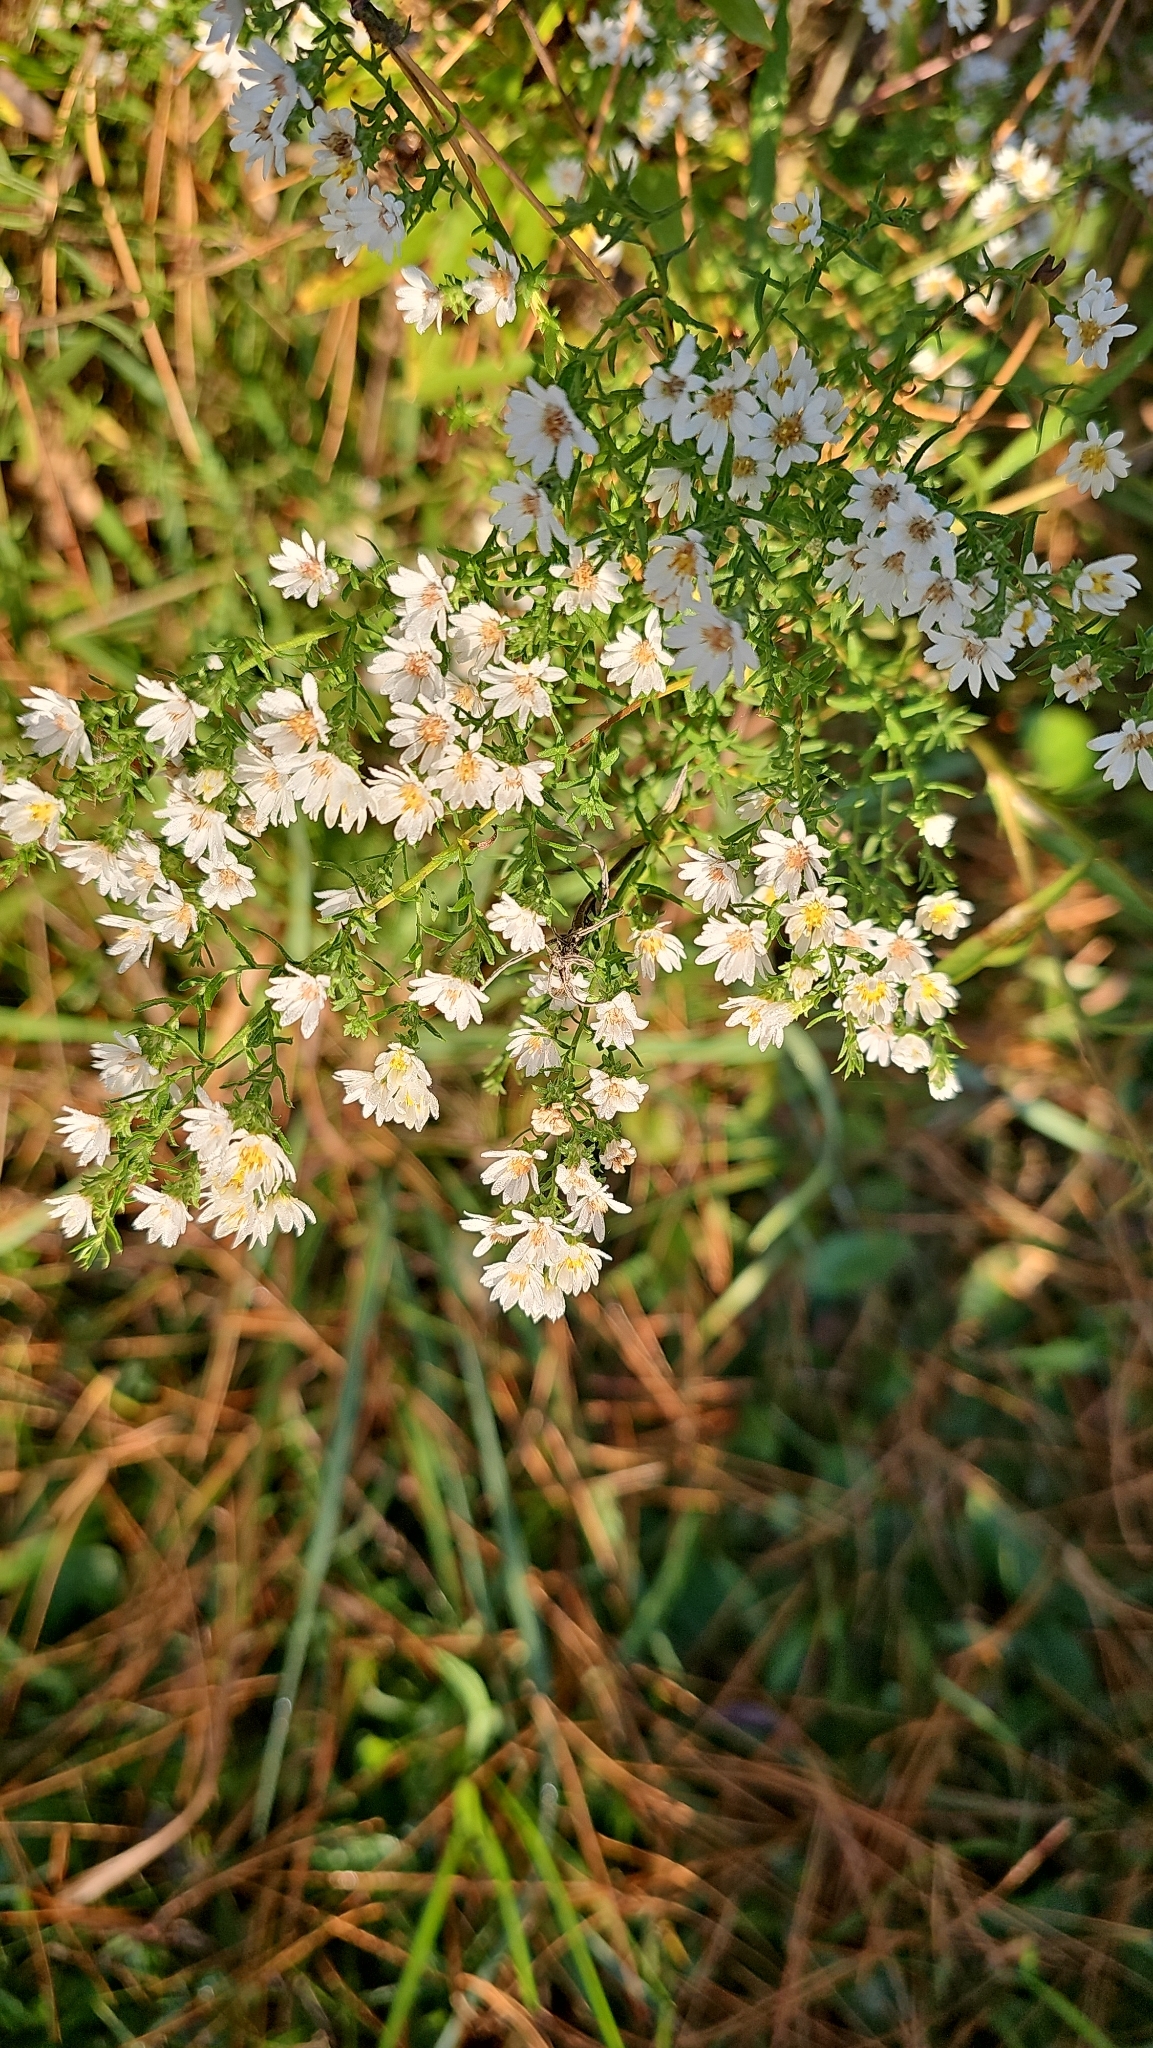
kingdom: Plantae
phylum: Tracheophyta
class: Magnoliopsida
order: Asterales
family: Asteraceae
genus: Symphyotrichum
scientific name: Symphyotrichum ericoides
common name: Heath aster
